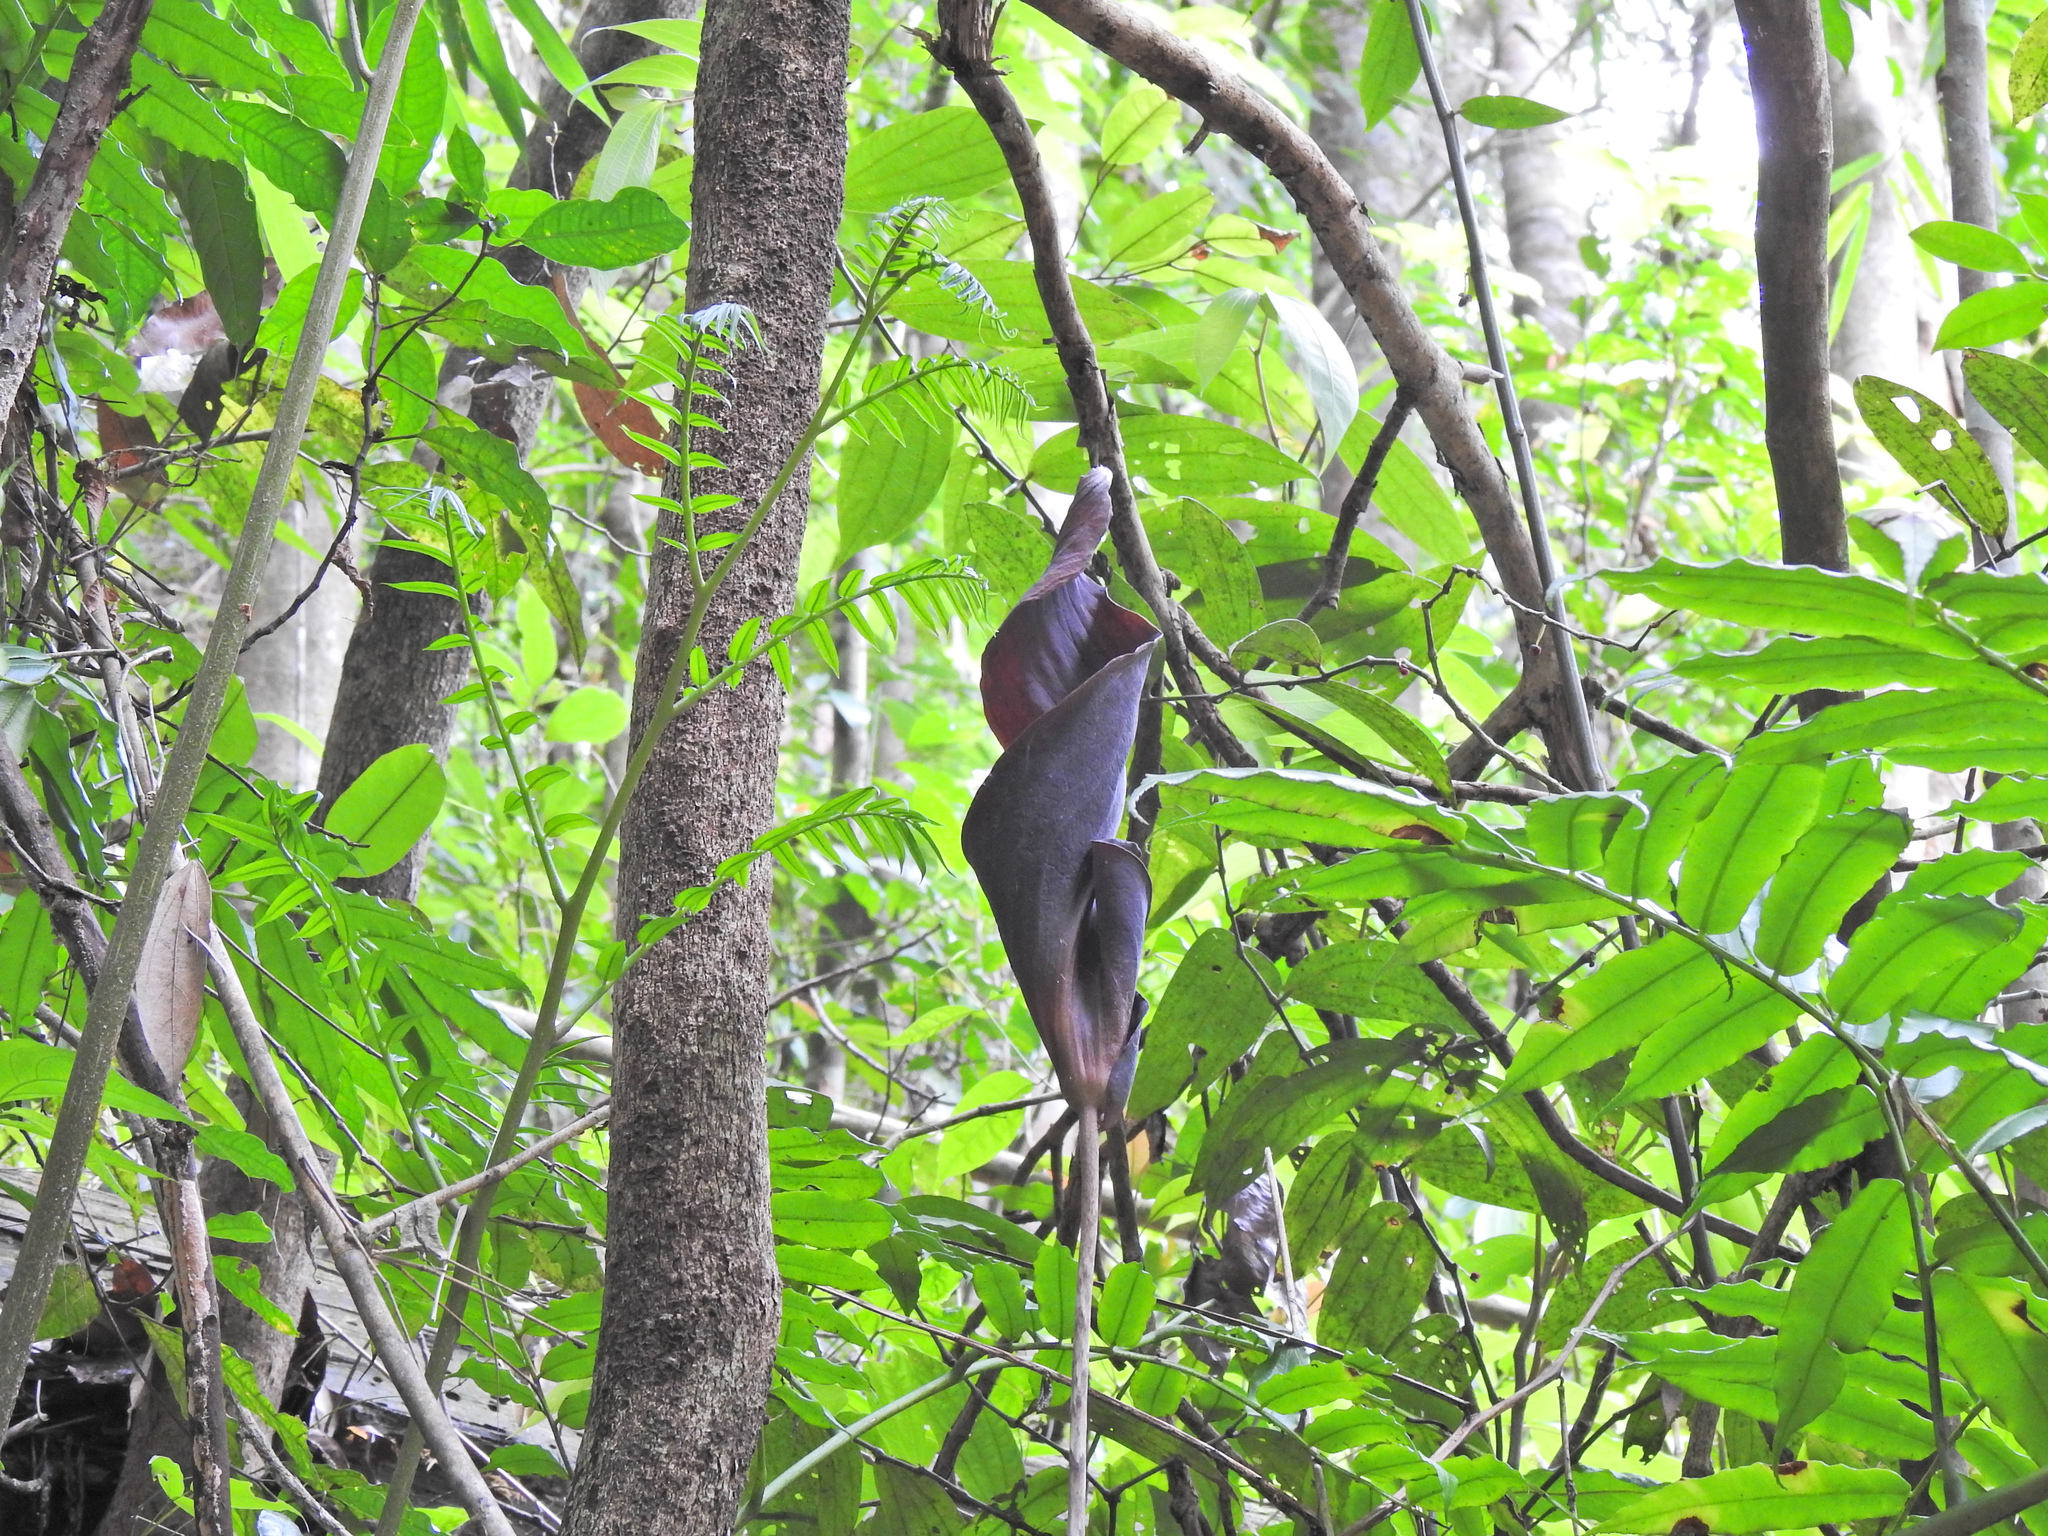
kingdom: Plantae
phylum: Tracheophyta
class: Liliopsida
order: Alismatales
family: Araceae
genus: Anaphyllum
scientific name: Anaphyllum wightii
